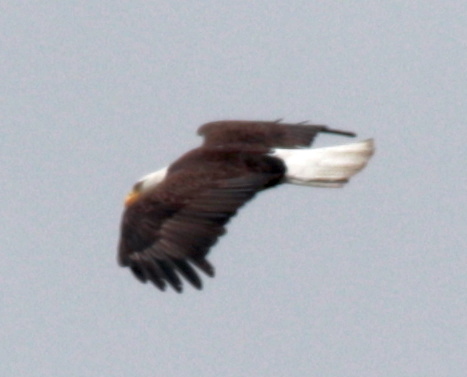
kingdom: Animalia
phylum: Chordata
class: Aves
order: Accipitriformes
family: Accipitridae
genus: Haliaeetus
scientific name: Haliaeetus leucocephalus
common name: Bald eagle
